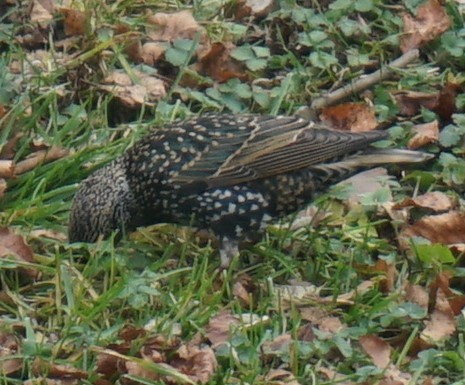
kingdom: Animalia
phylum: Chordata
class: Aves
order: Passeriformes
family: Sturnidae
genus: Sturnus
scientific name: Sturnus vulgaris
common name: Common starling
